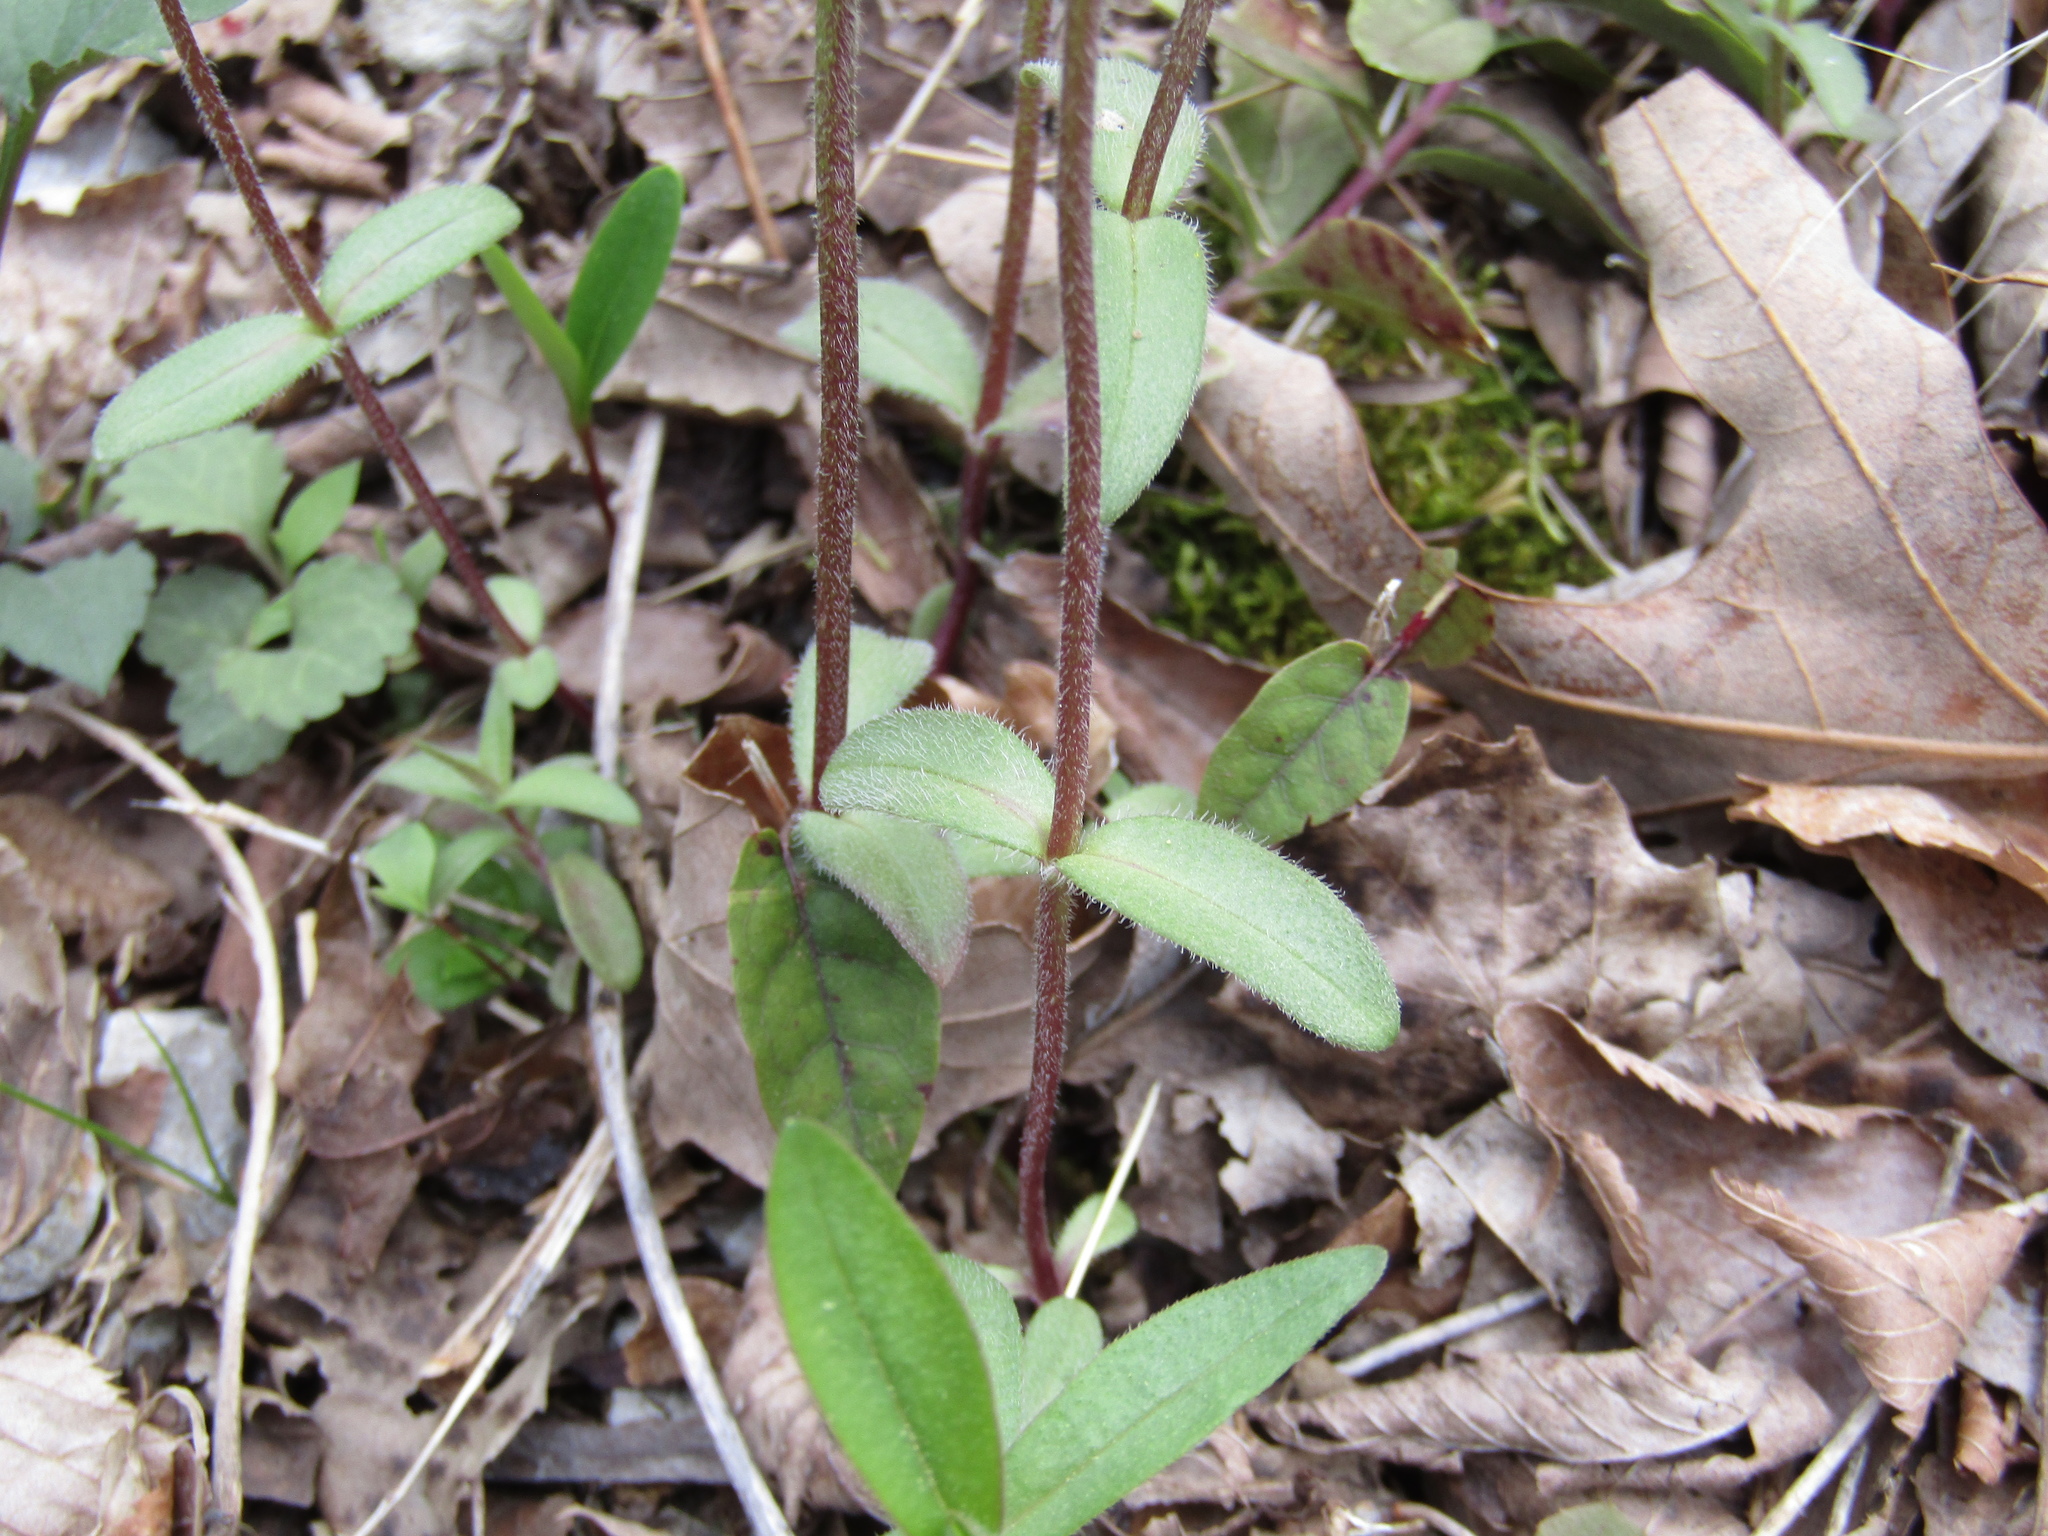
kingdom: Plantae
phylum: Tracheophyta
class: Magnoliopsida
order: Ericales
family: Polemoniaceae
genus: Phlox
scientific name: Phlox divaricata
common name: Blue phlox
